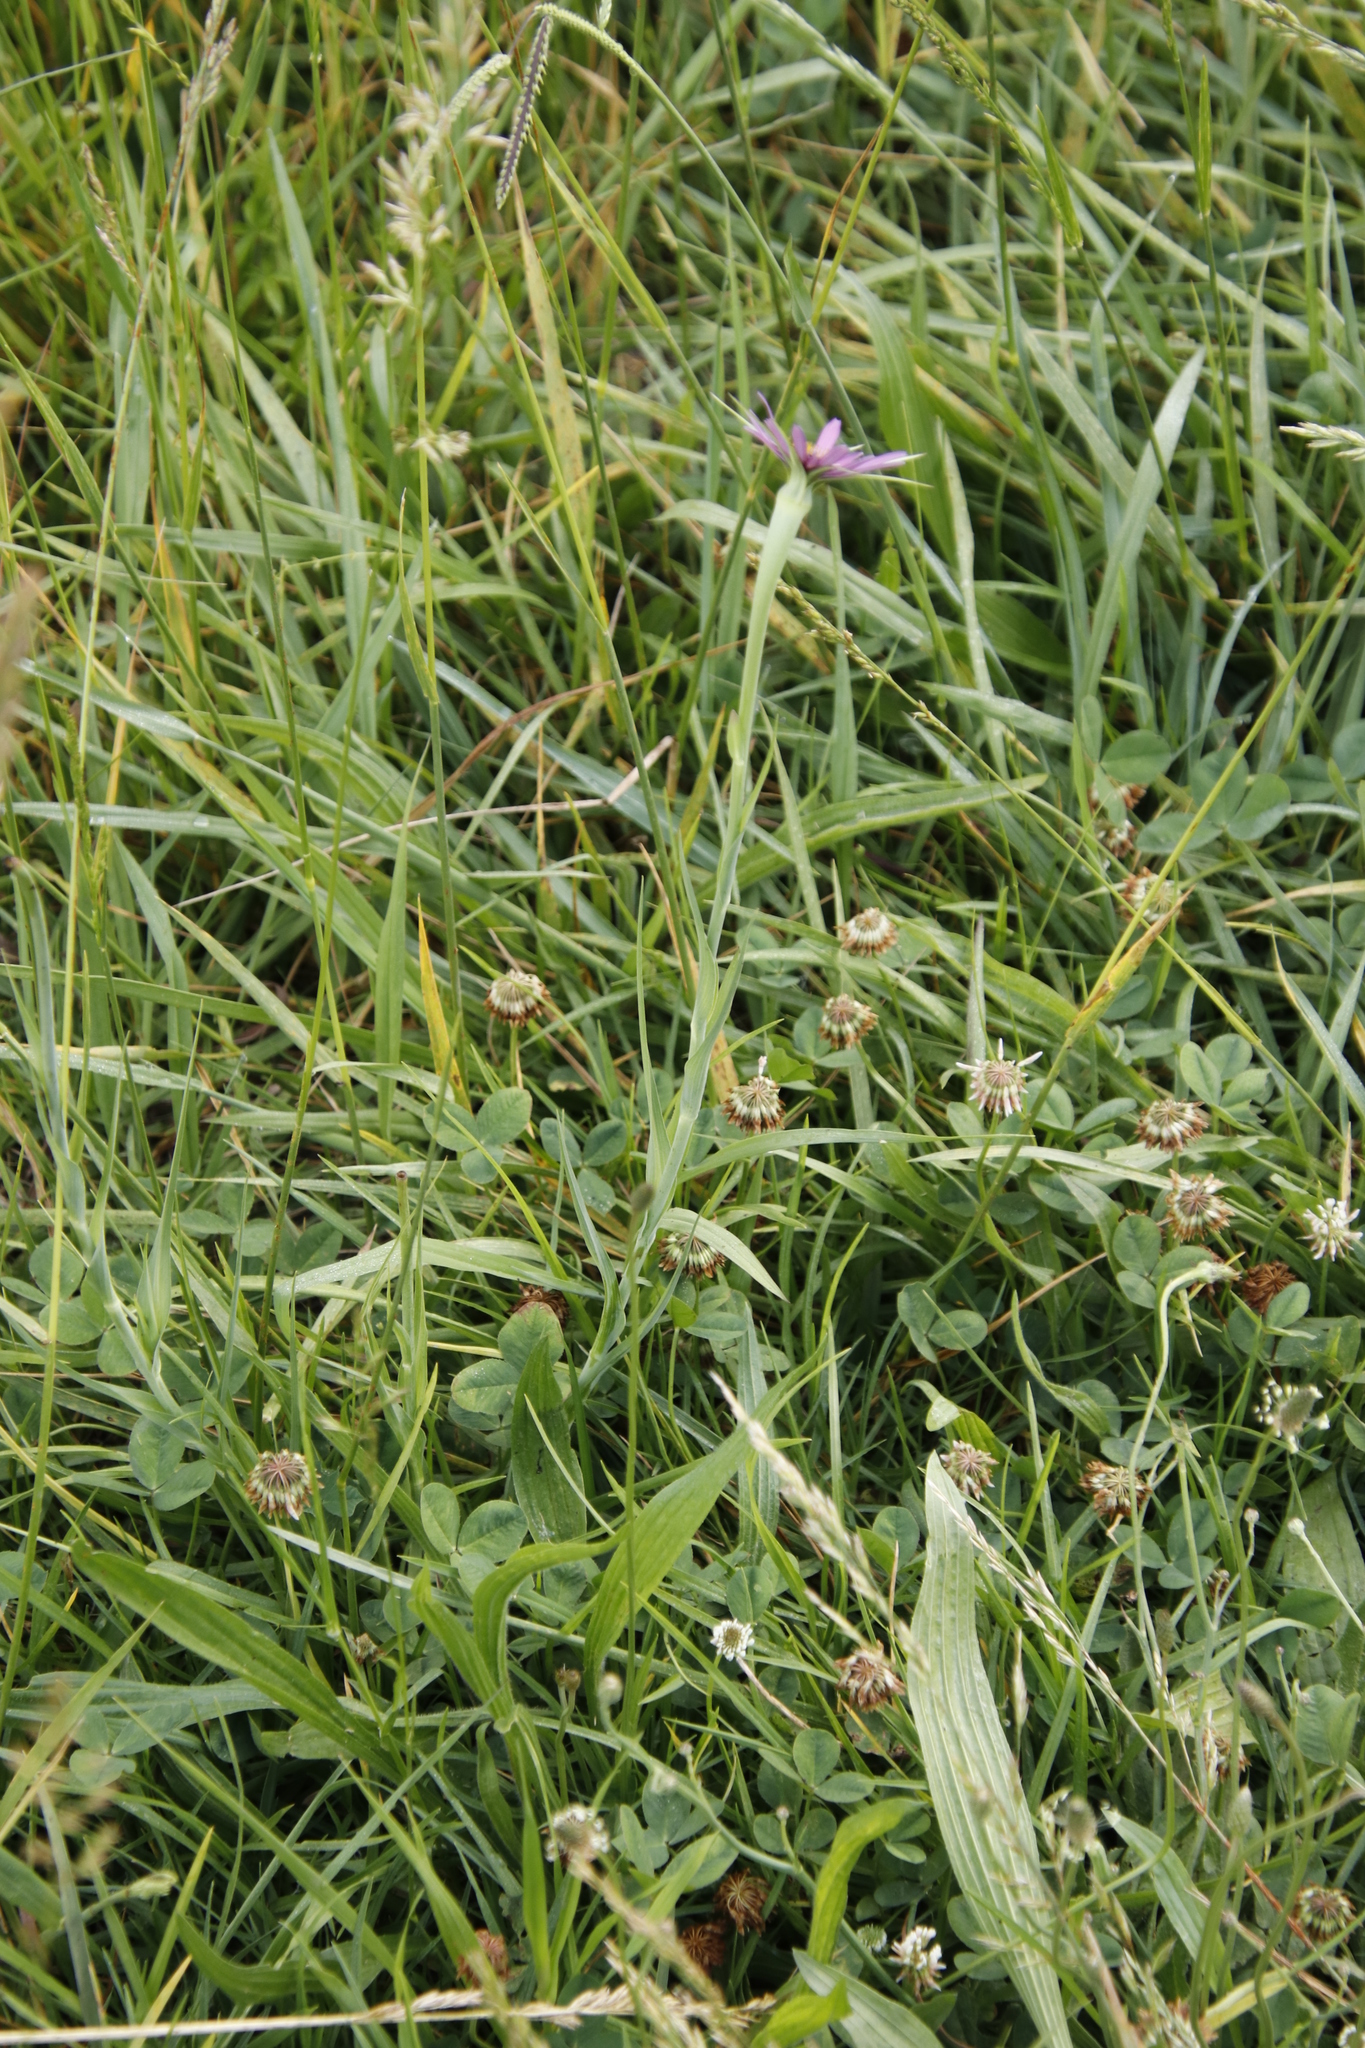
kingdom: Plantae
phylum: Tracheophyta
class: Magnoliopsida
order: Asterales
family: Asteraceae
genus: Tragopogon
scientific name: Tragopogon porrifolius
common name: Salsify
